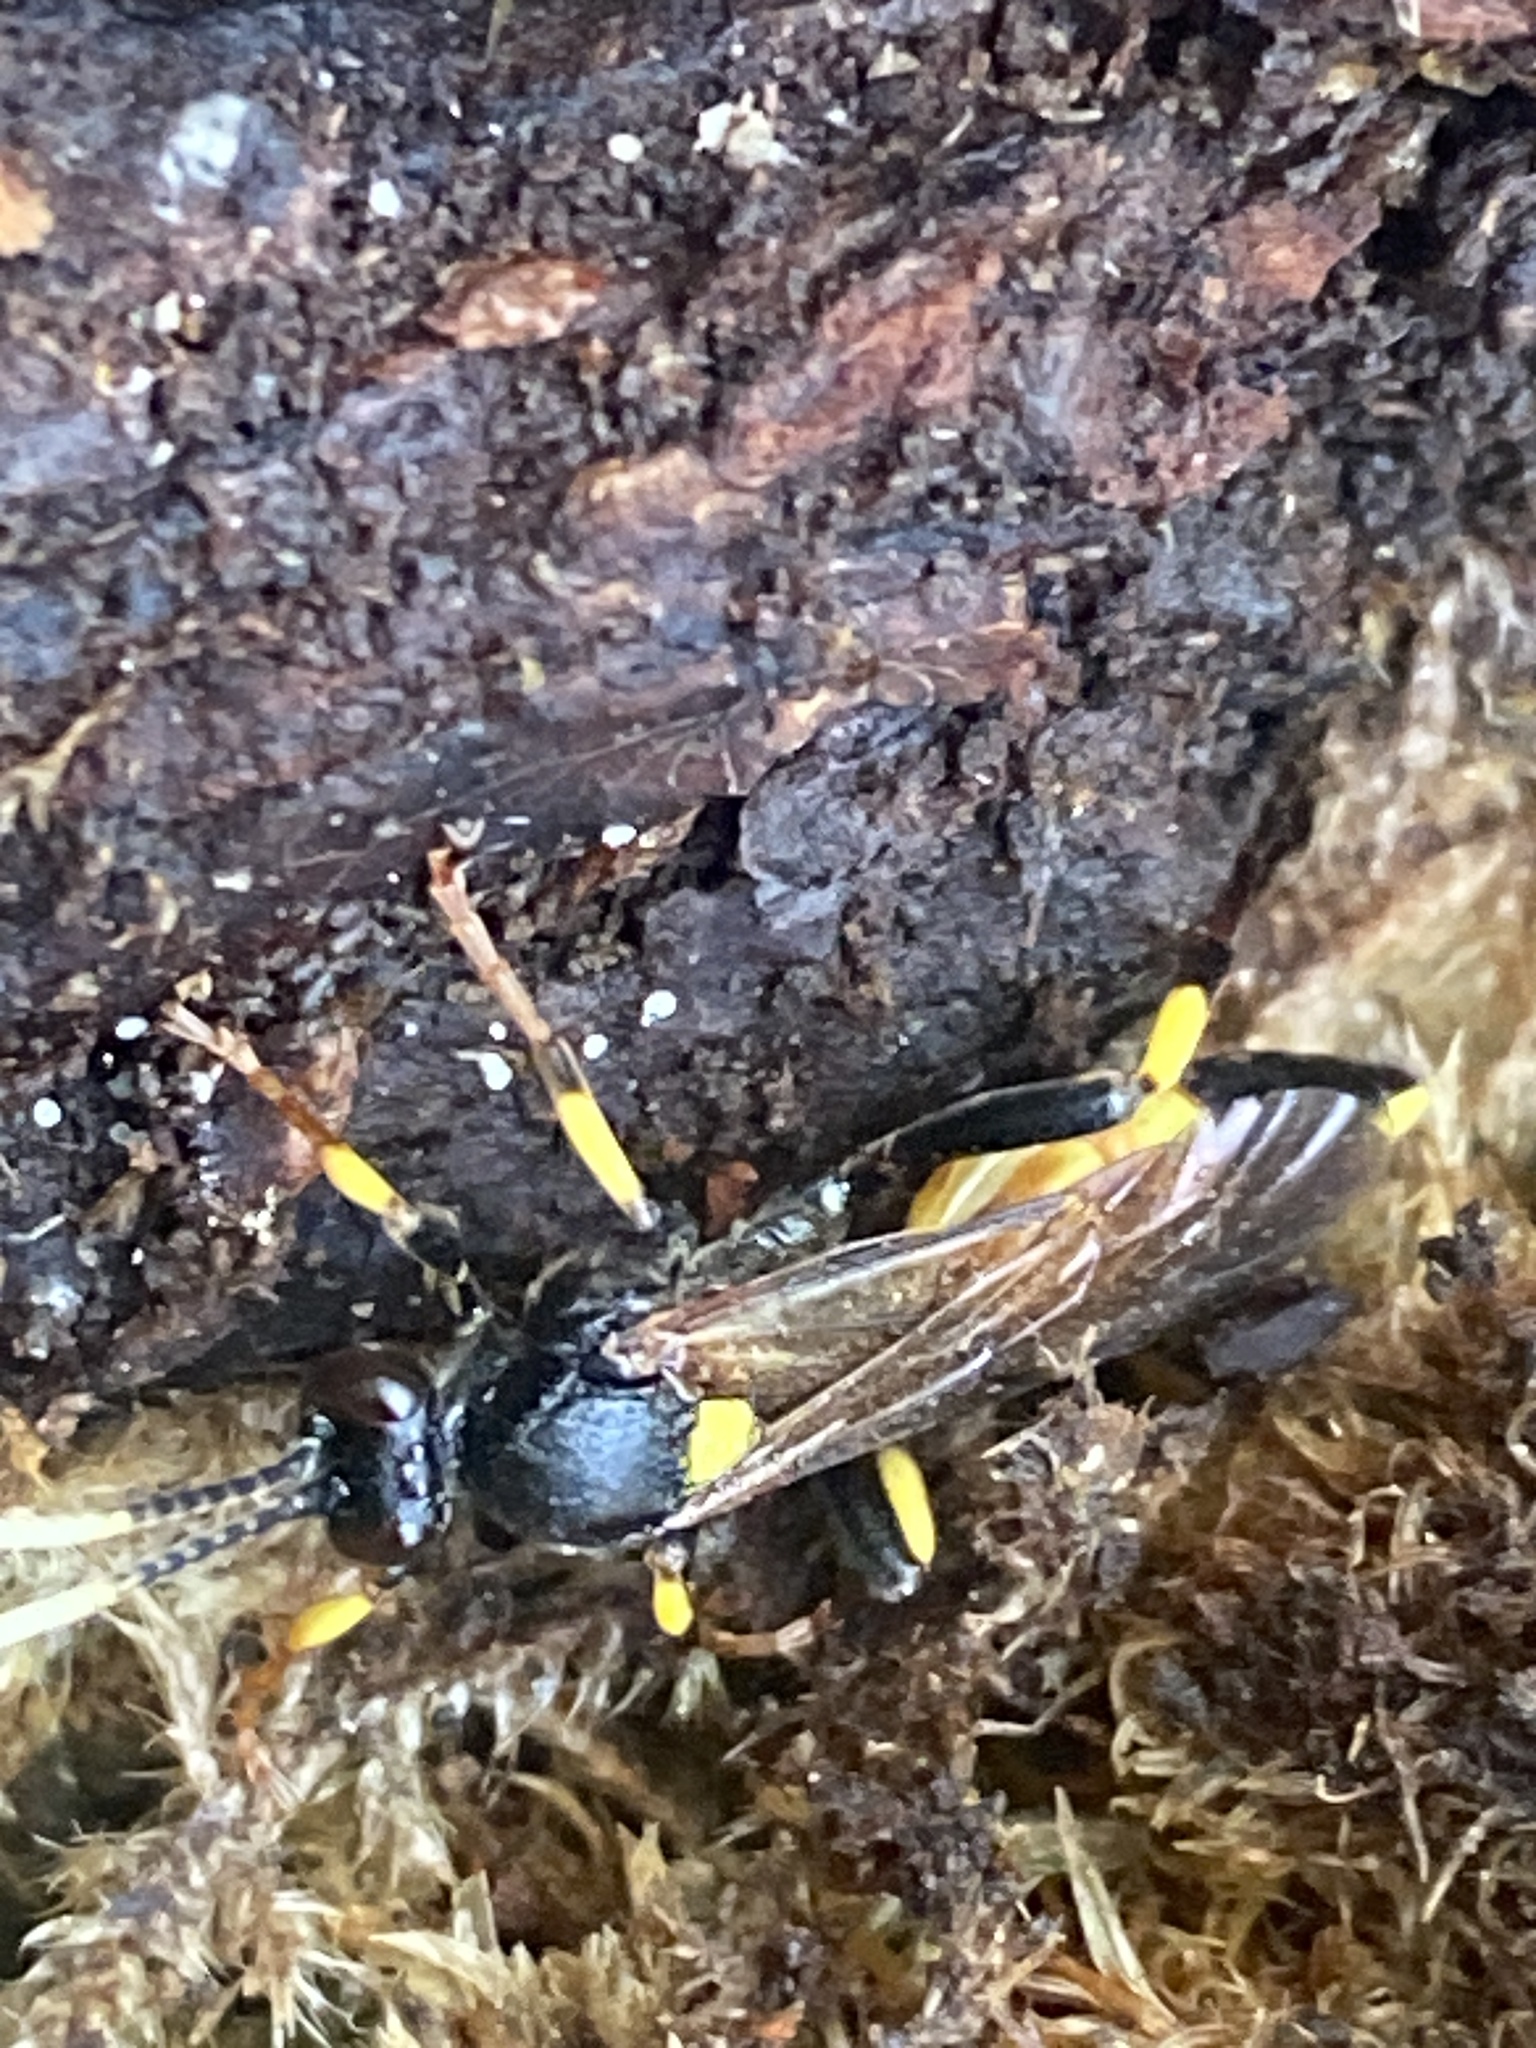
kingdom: Animalia
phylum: Arthropoda
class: Insecta
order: Hymenoptera
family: Ichneumonidae
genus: Ichneumon
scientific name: Ichneumon stramentor
